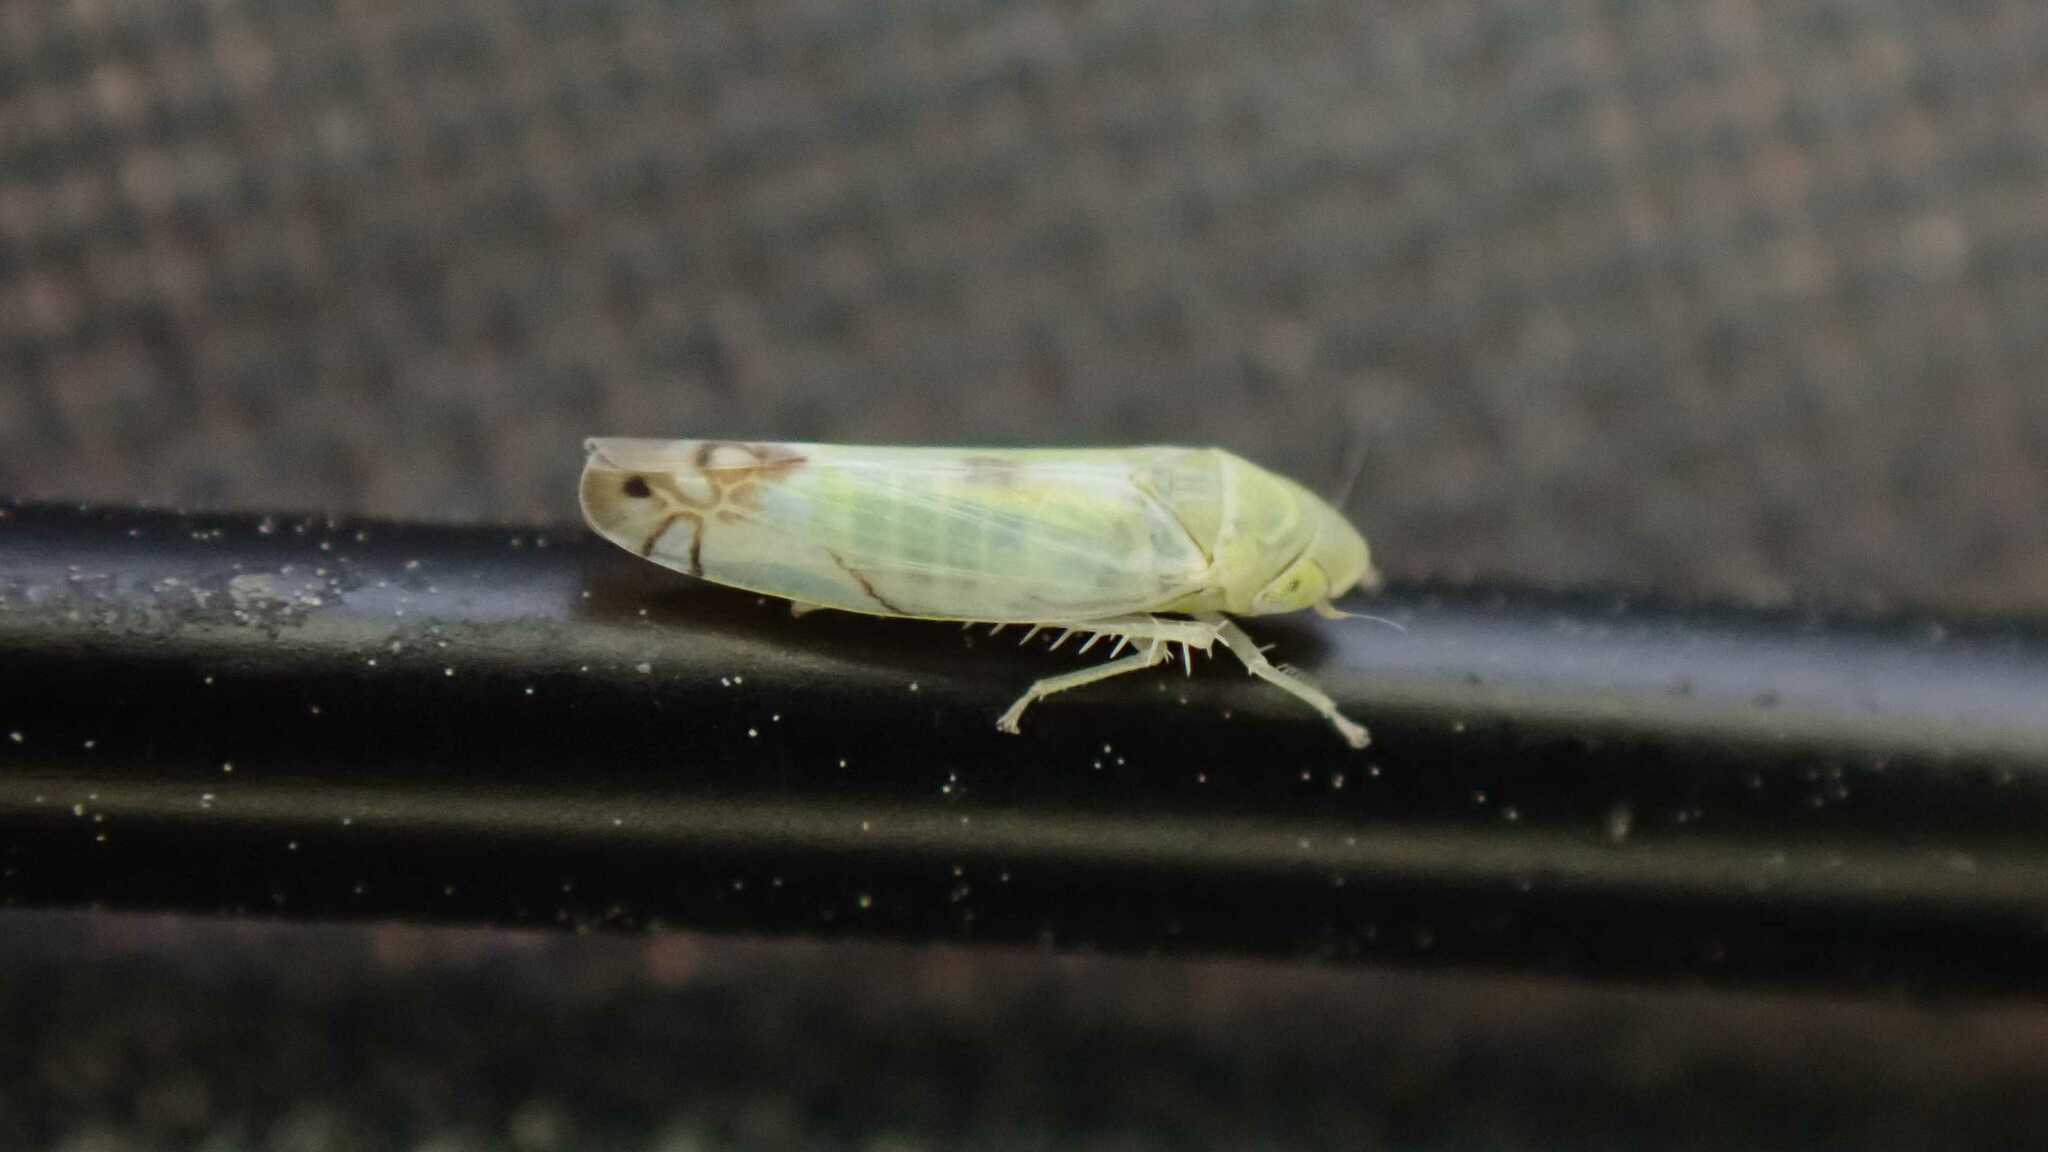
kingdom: Animalia
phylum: Arthropoda
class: Insecta
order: Hemiptera
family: Cicadellidae
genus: Zyginella
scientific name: Zyginella pulchra
